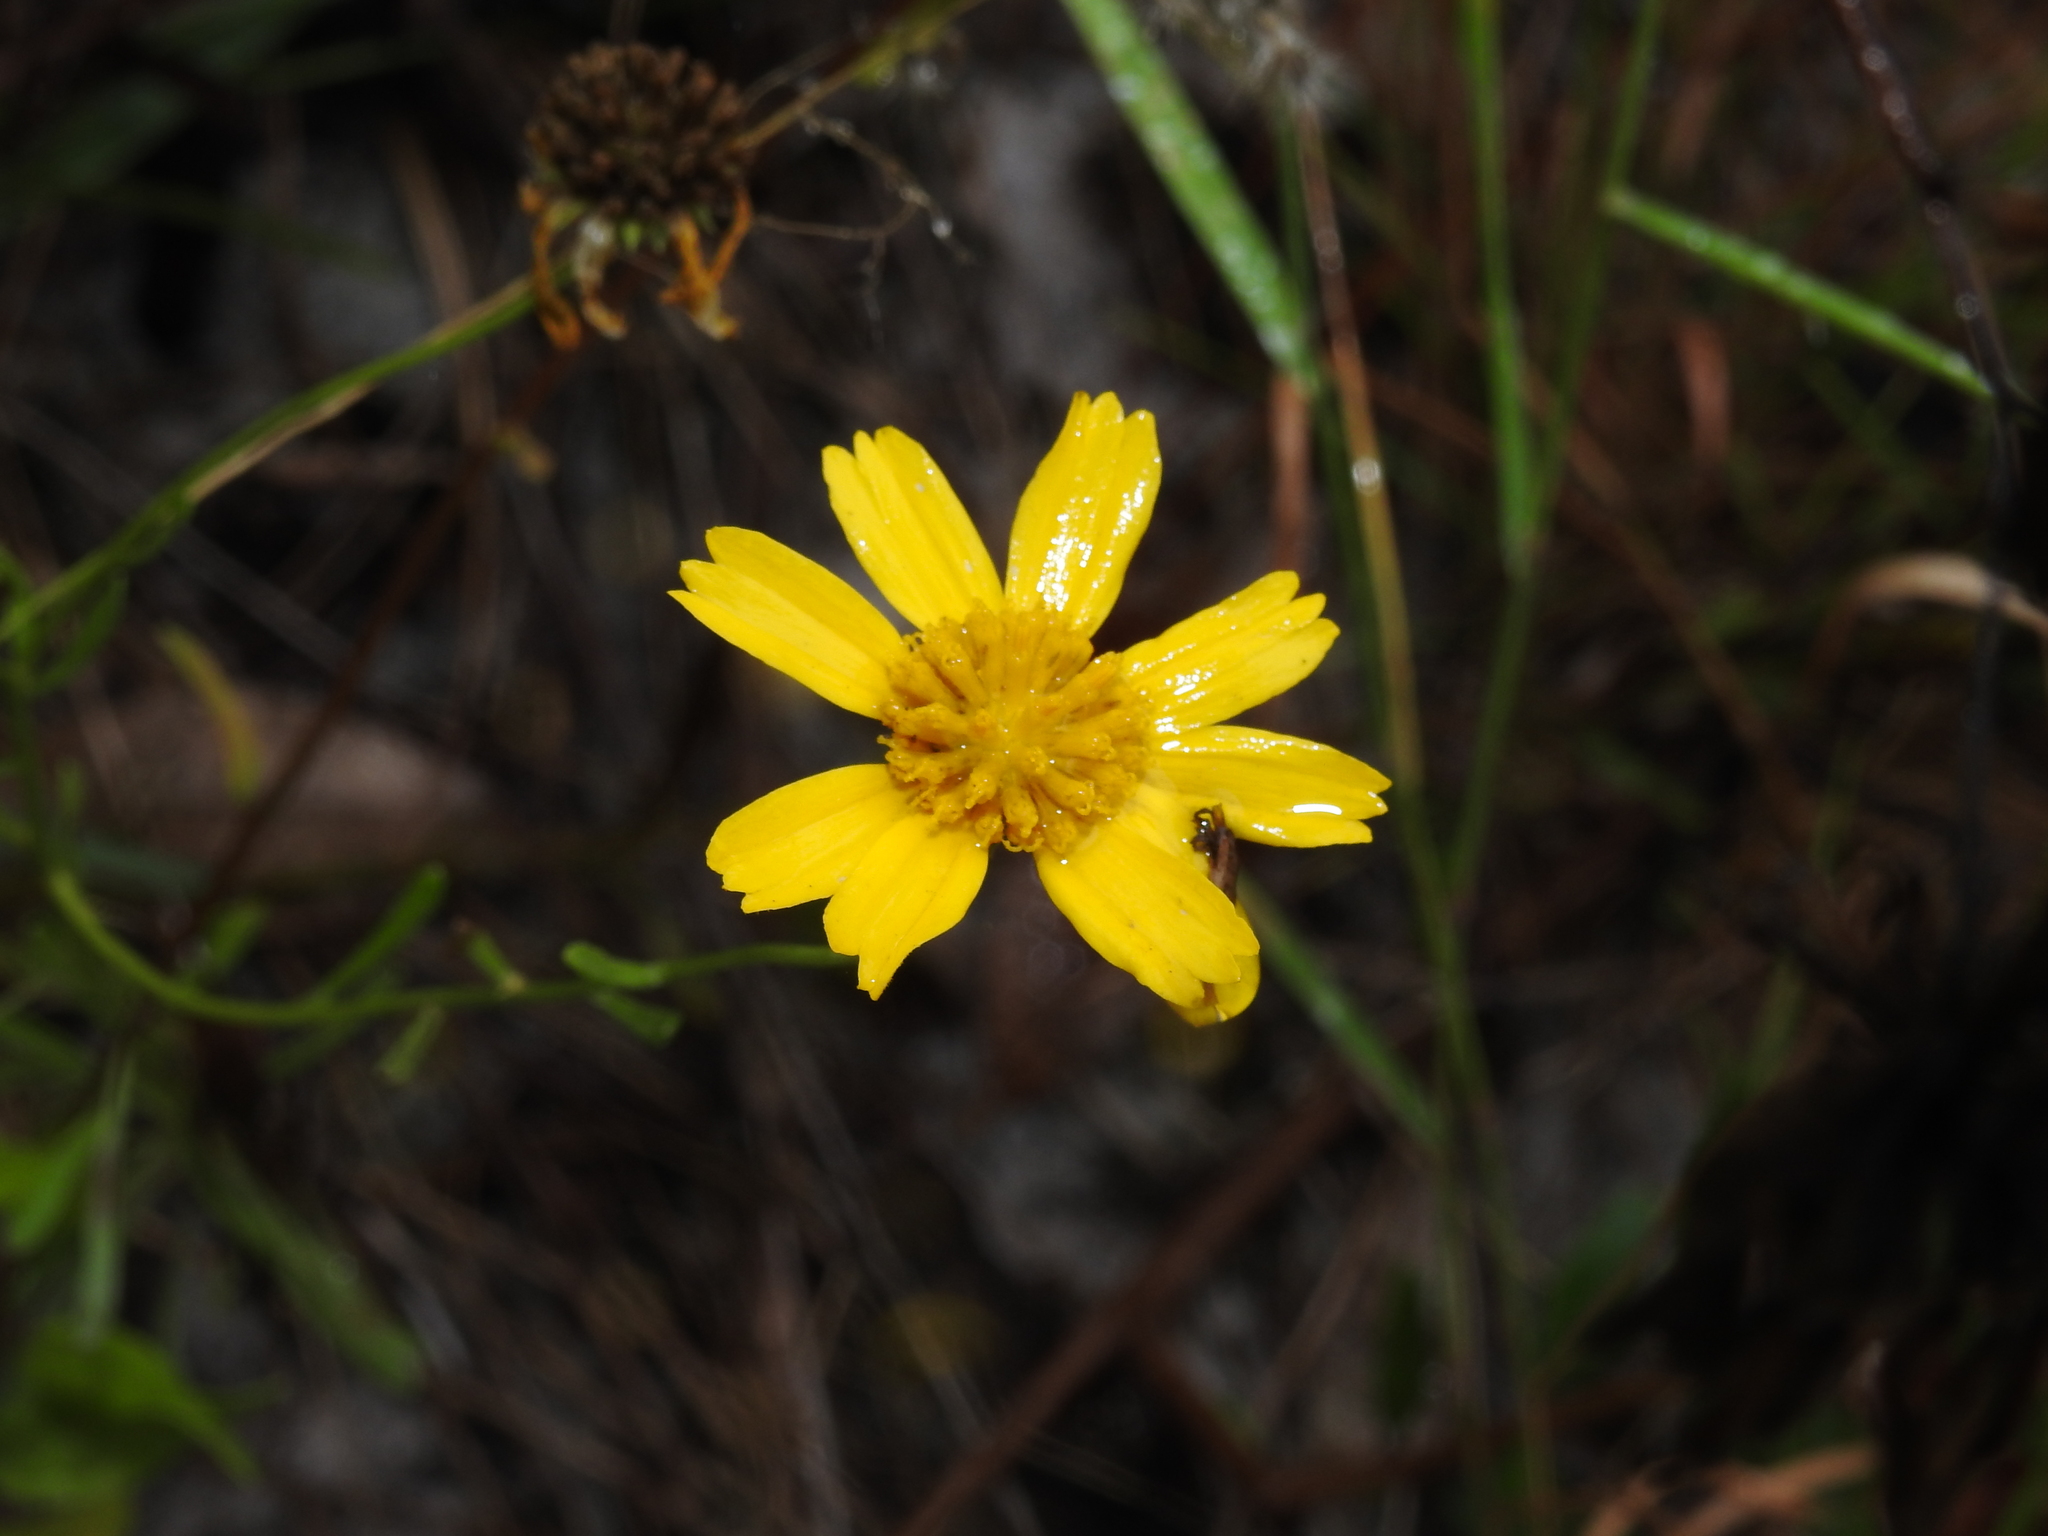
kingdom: Plantae
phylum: Tracheophyta
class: Magnoliopsida
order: Asterales
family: Asteraceae
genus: Balduina
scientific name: Balduina angustifolia
